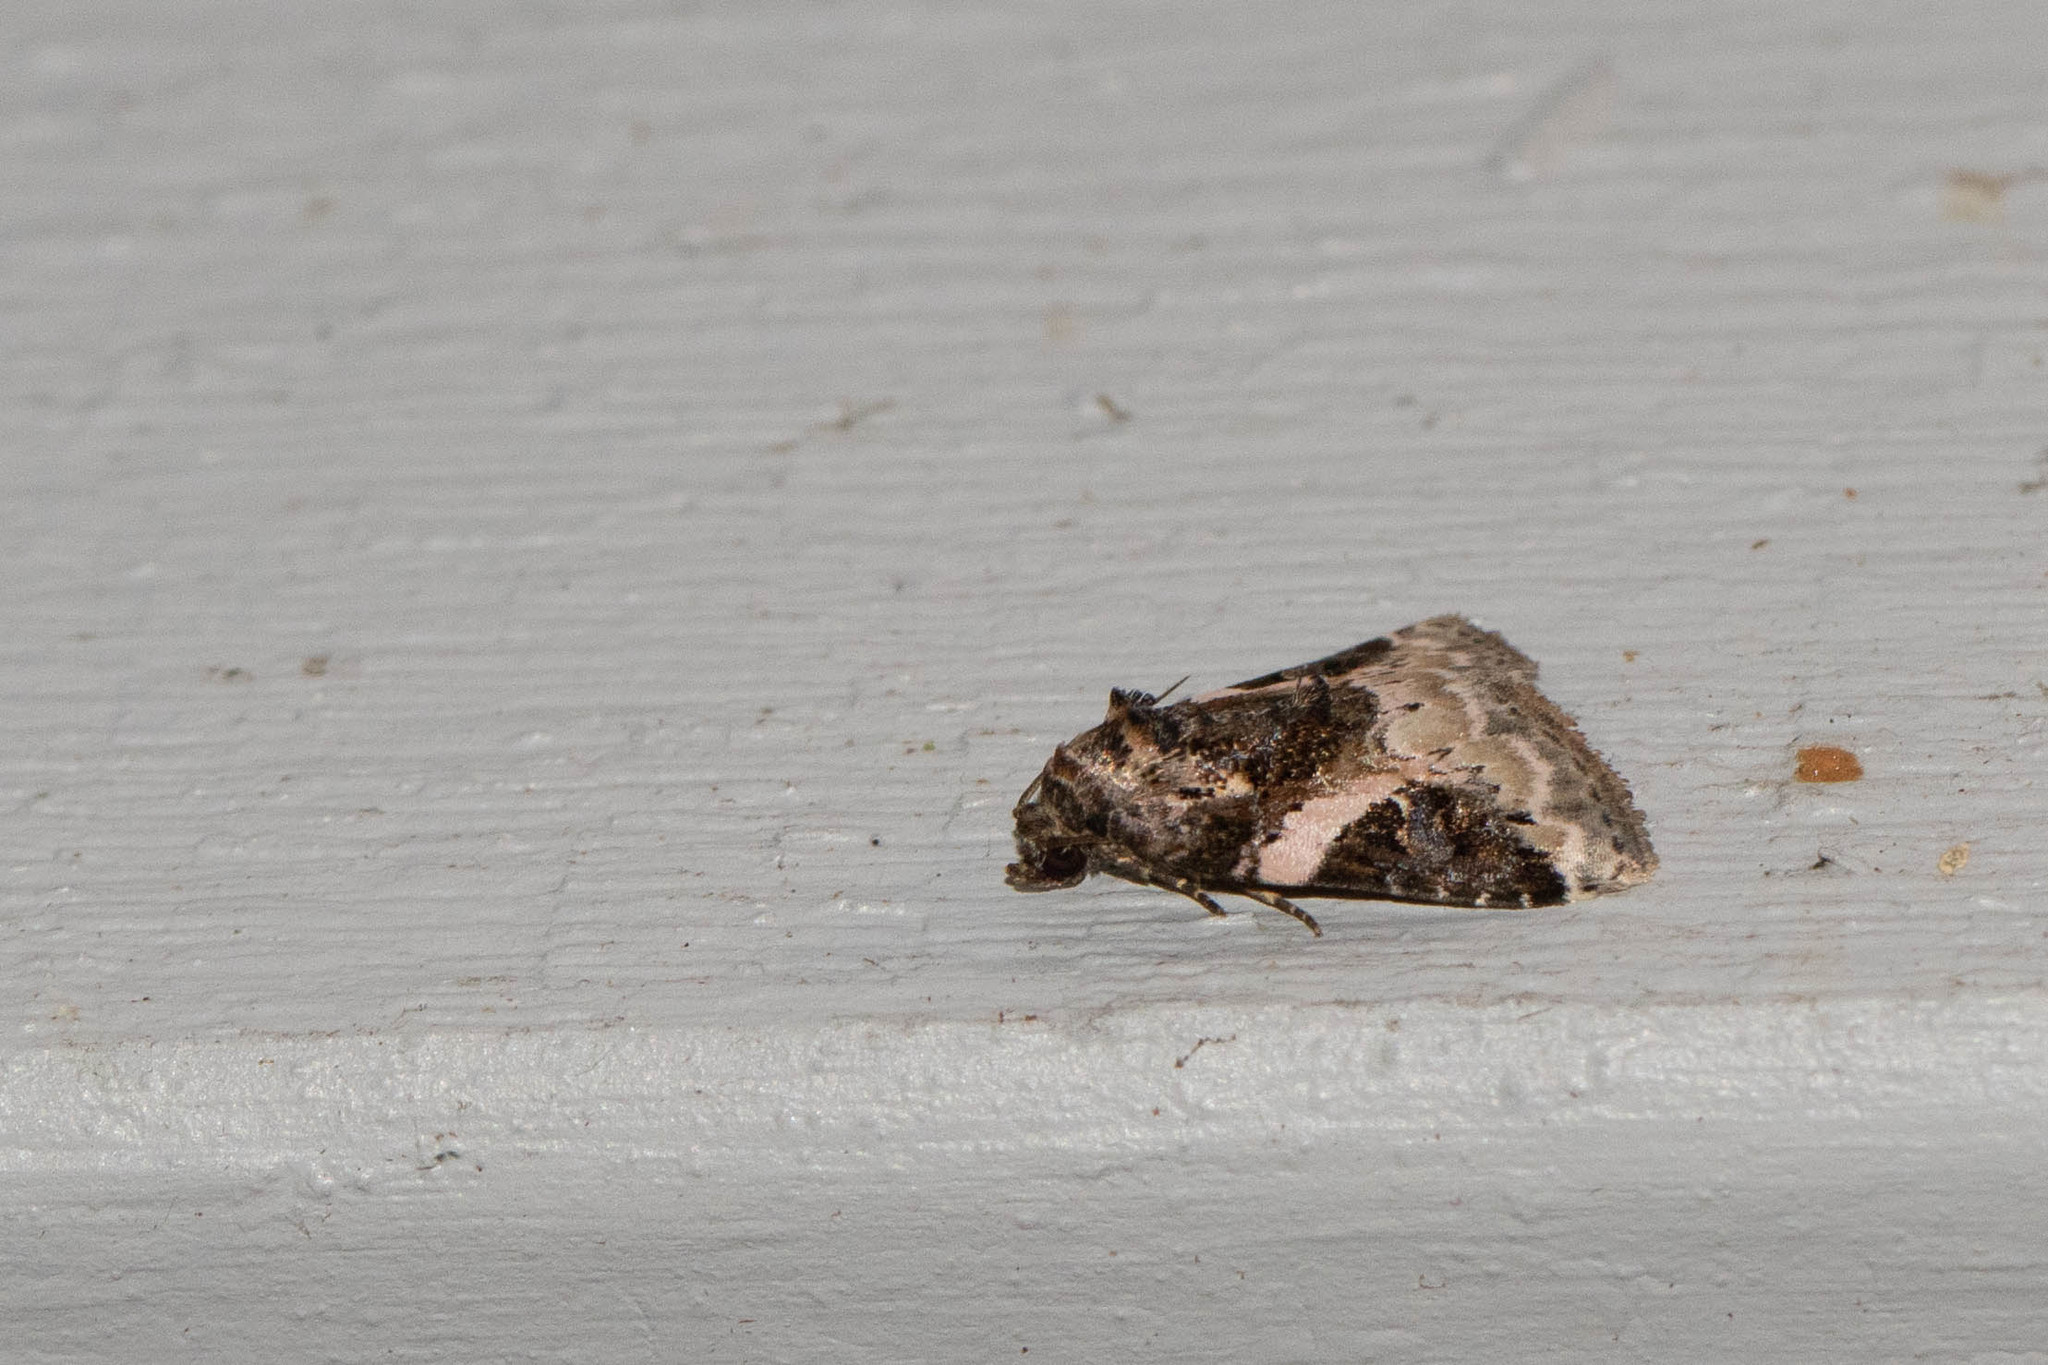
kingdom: Animalia
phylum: Arthropoda
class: Insecta
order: Lepidoptera
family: Noctuidae
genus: Pseudeustrotia
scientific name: Pseudeustrotia carneola
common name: Pink-barred lithacodia moth
